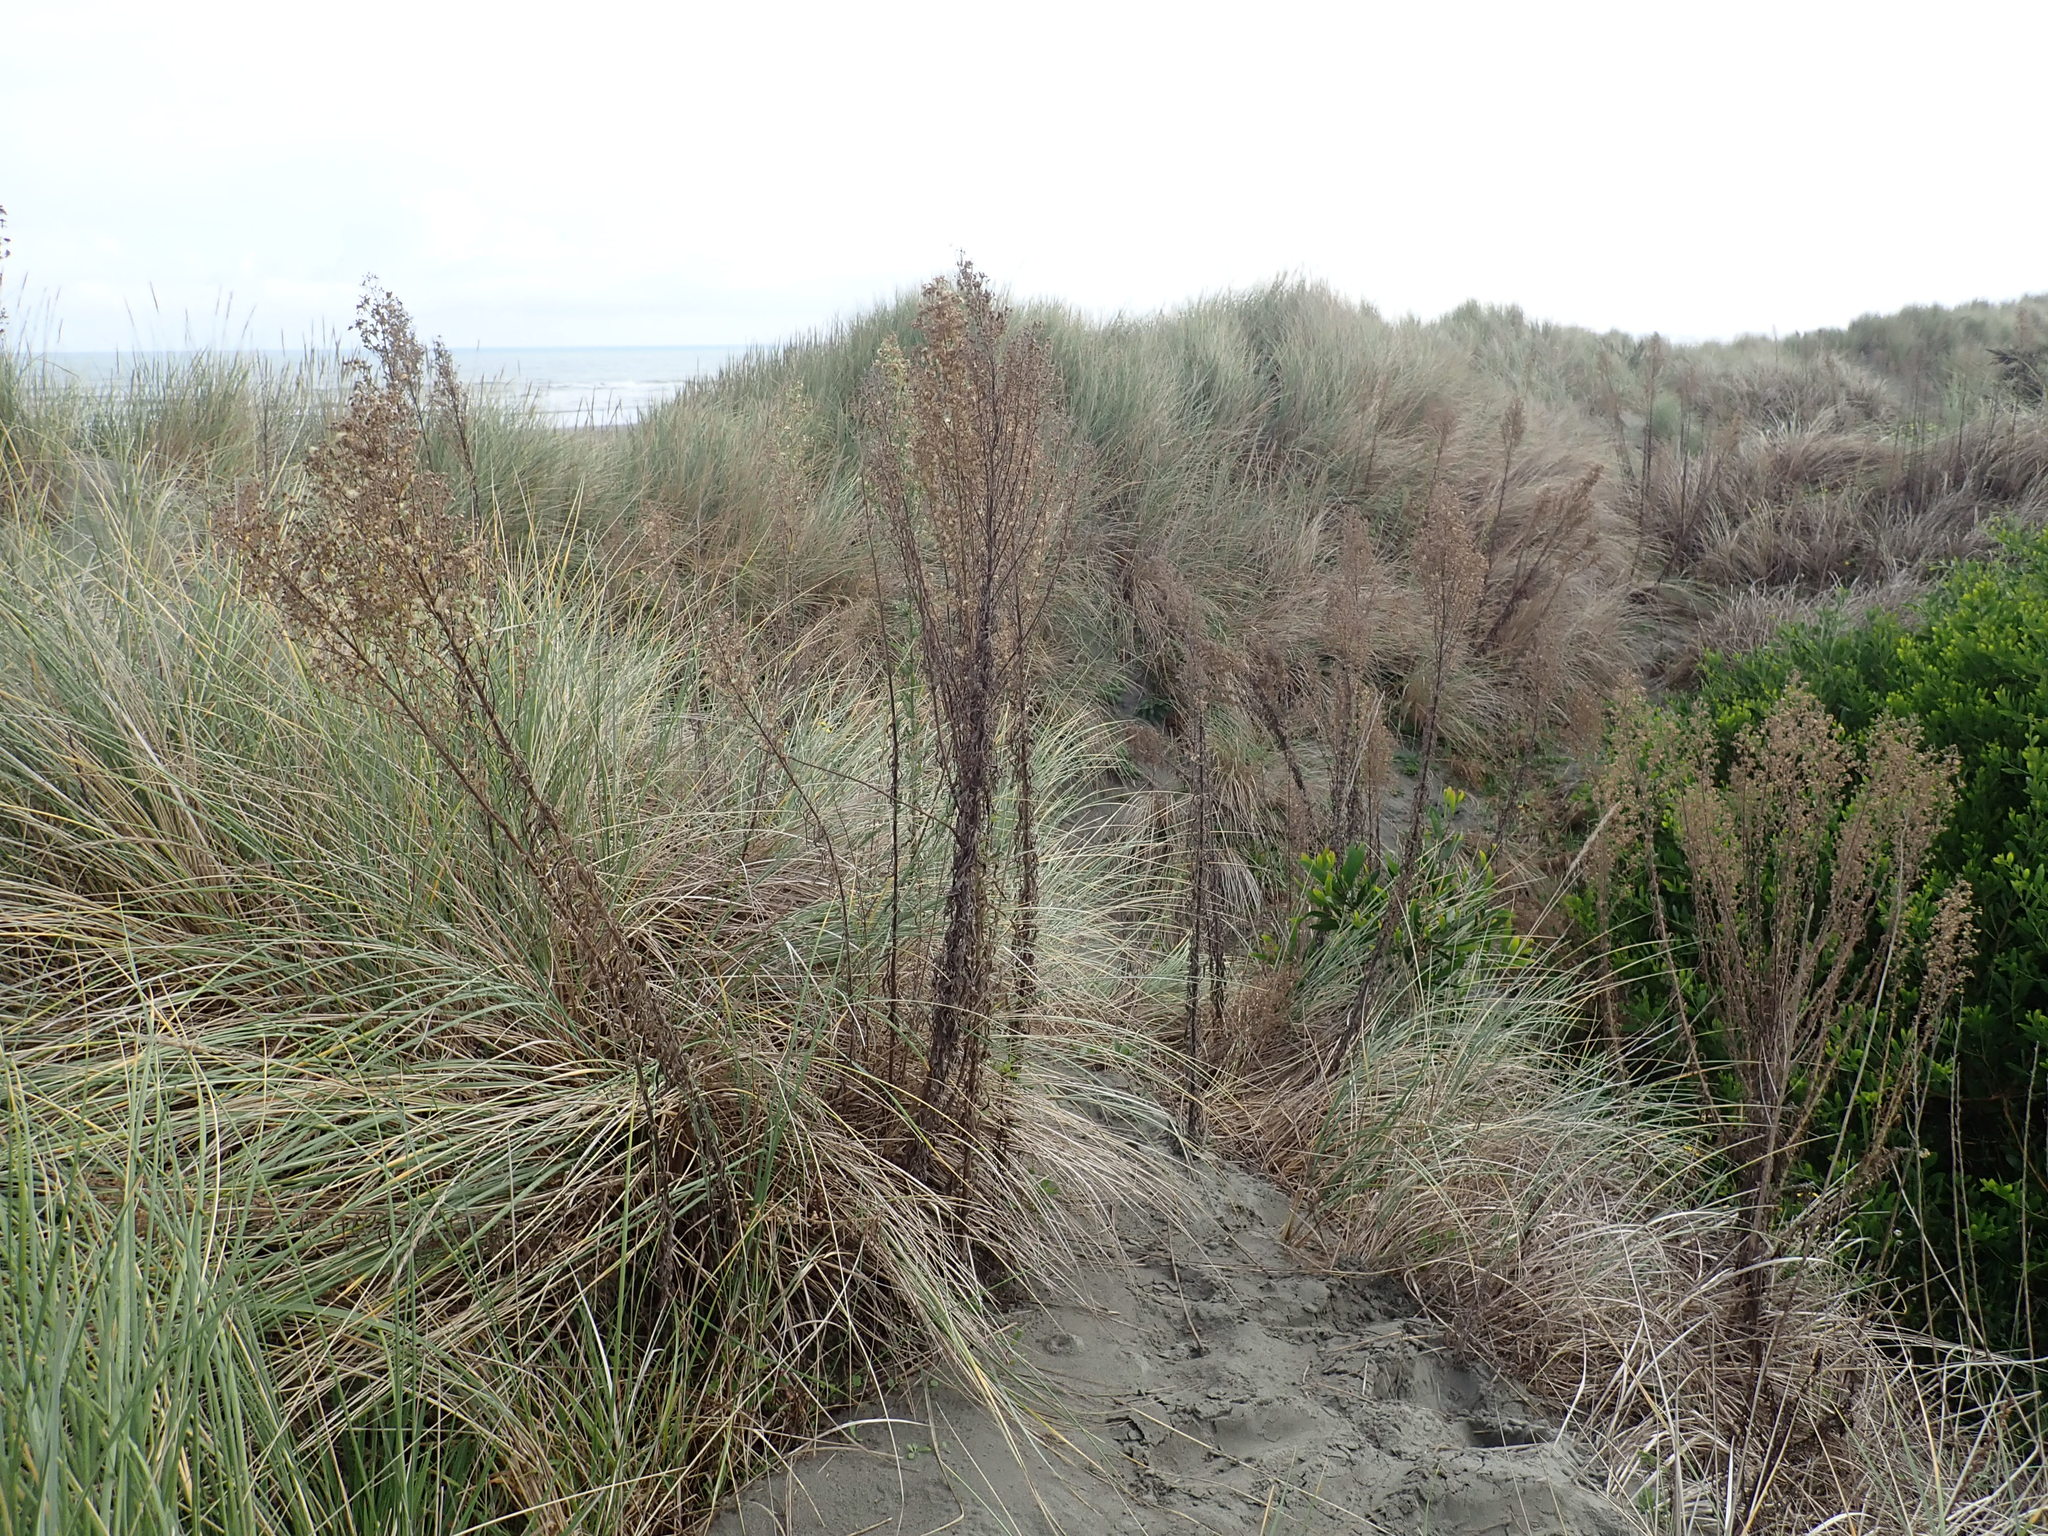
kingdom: Plantae
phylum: Tracheophyta
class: Magnoliopsida
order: Asterales
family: Asteraceae
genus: Erigeron
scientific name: Erigeron sumatrensis
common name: Daisy
